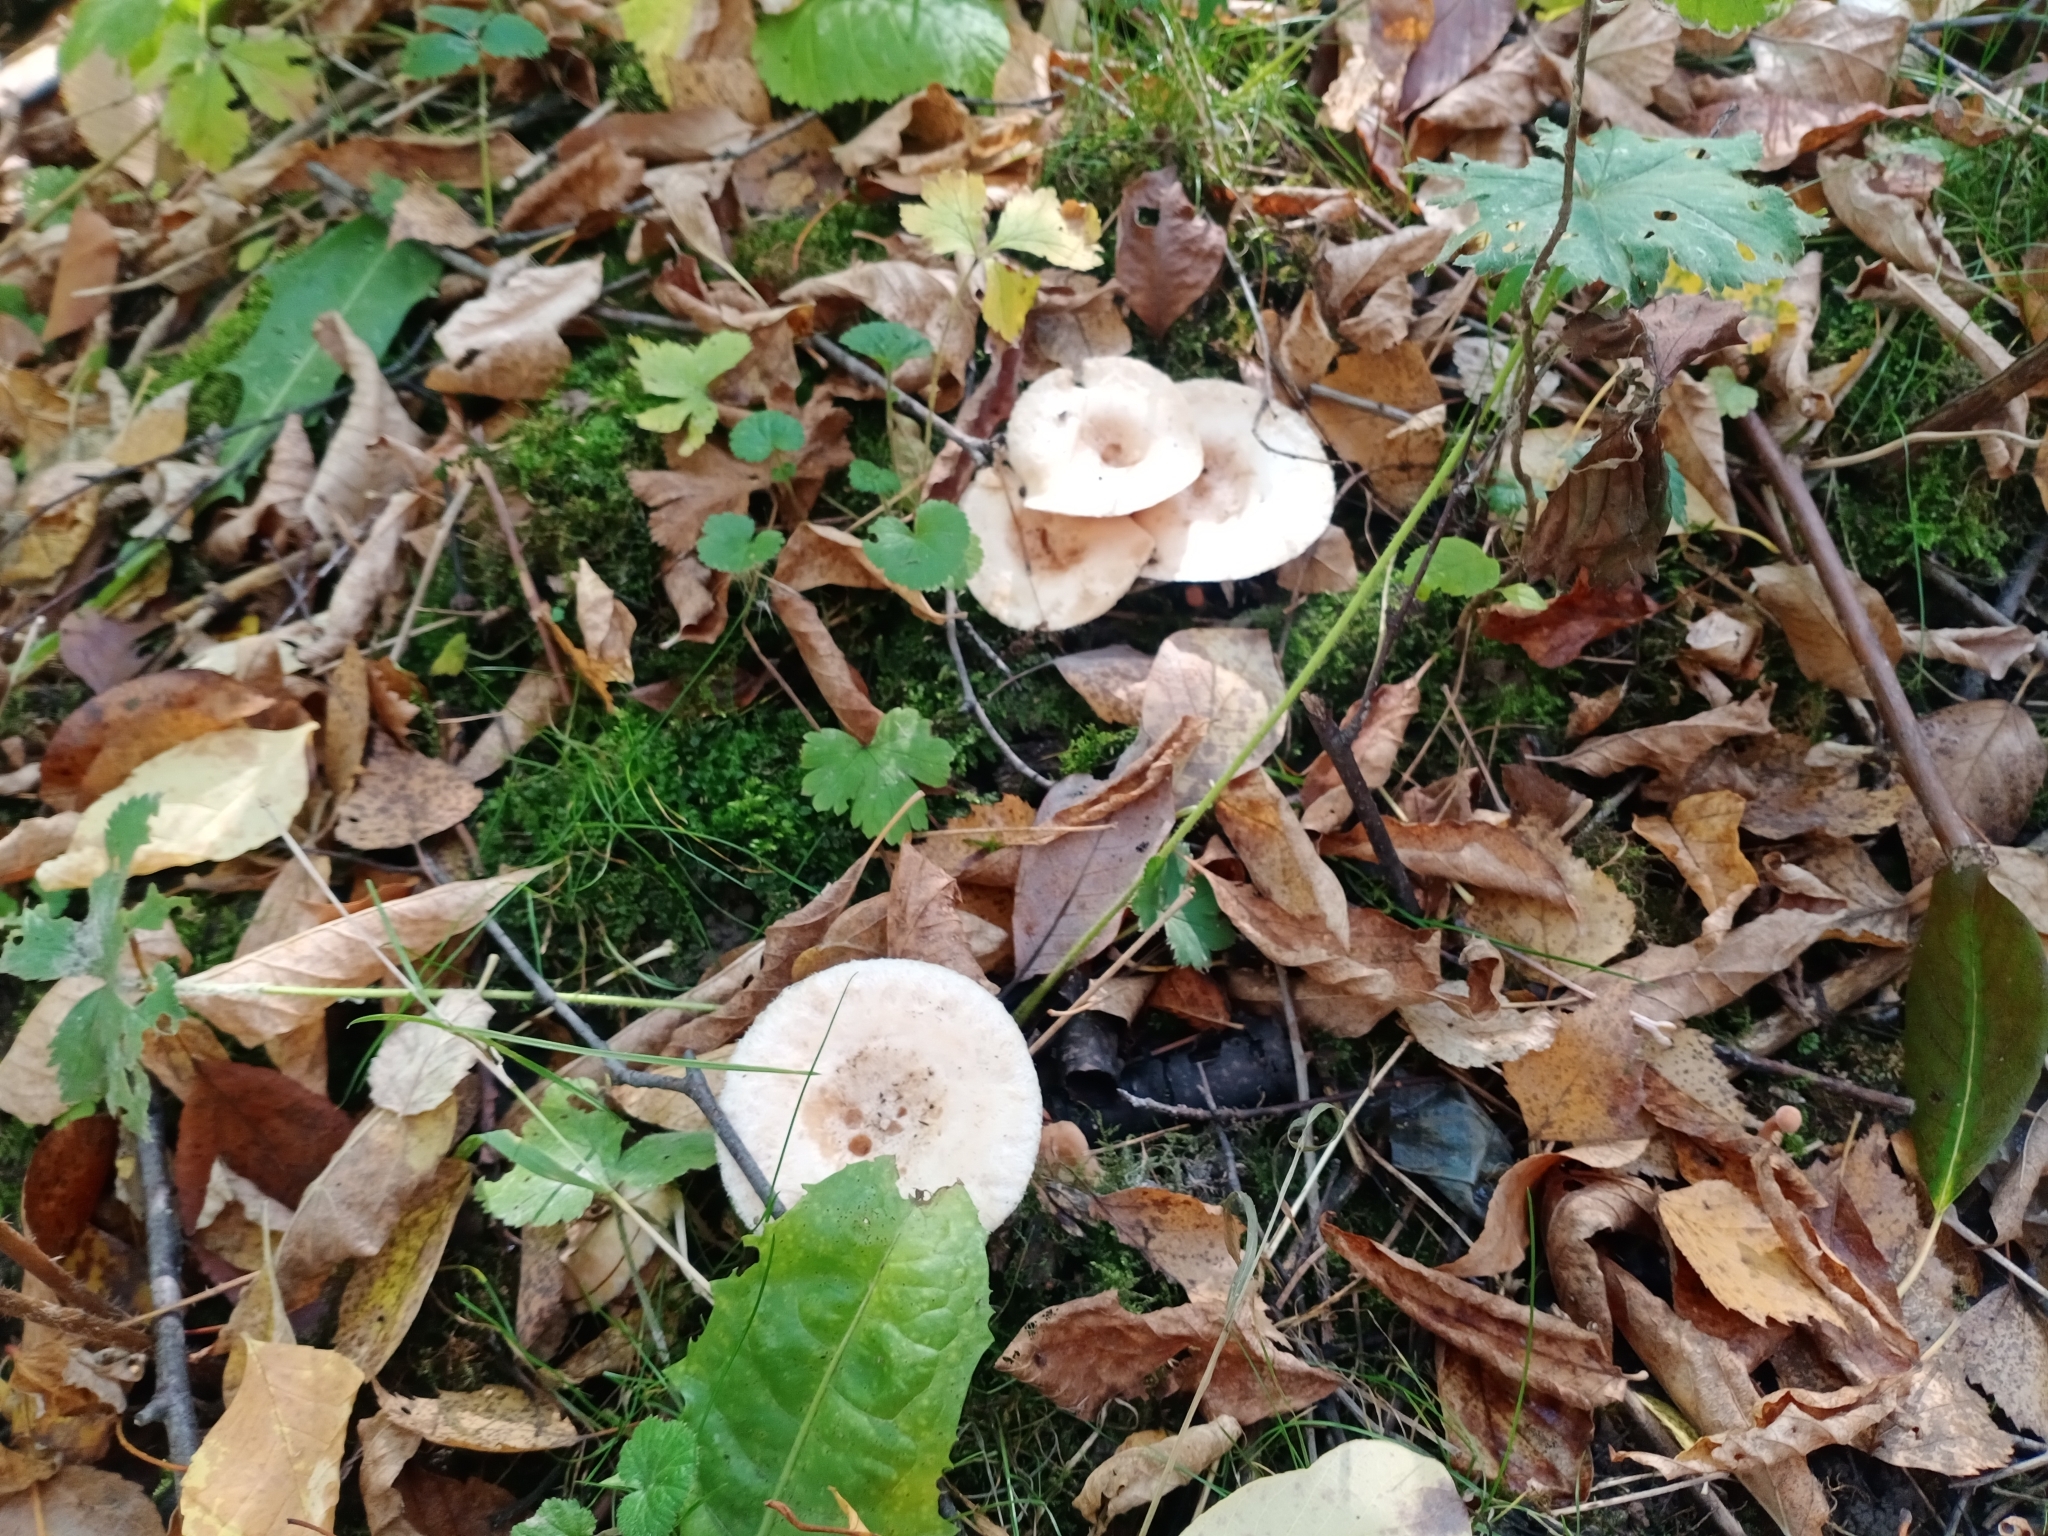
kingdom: Fungi
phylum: Basidiomycota
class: Agaricomycetes
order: Russulales
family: Russulaceae
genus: Lactarius
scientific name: Lactarius pubescens
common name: Bearded milkcap
